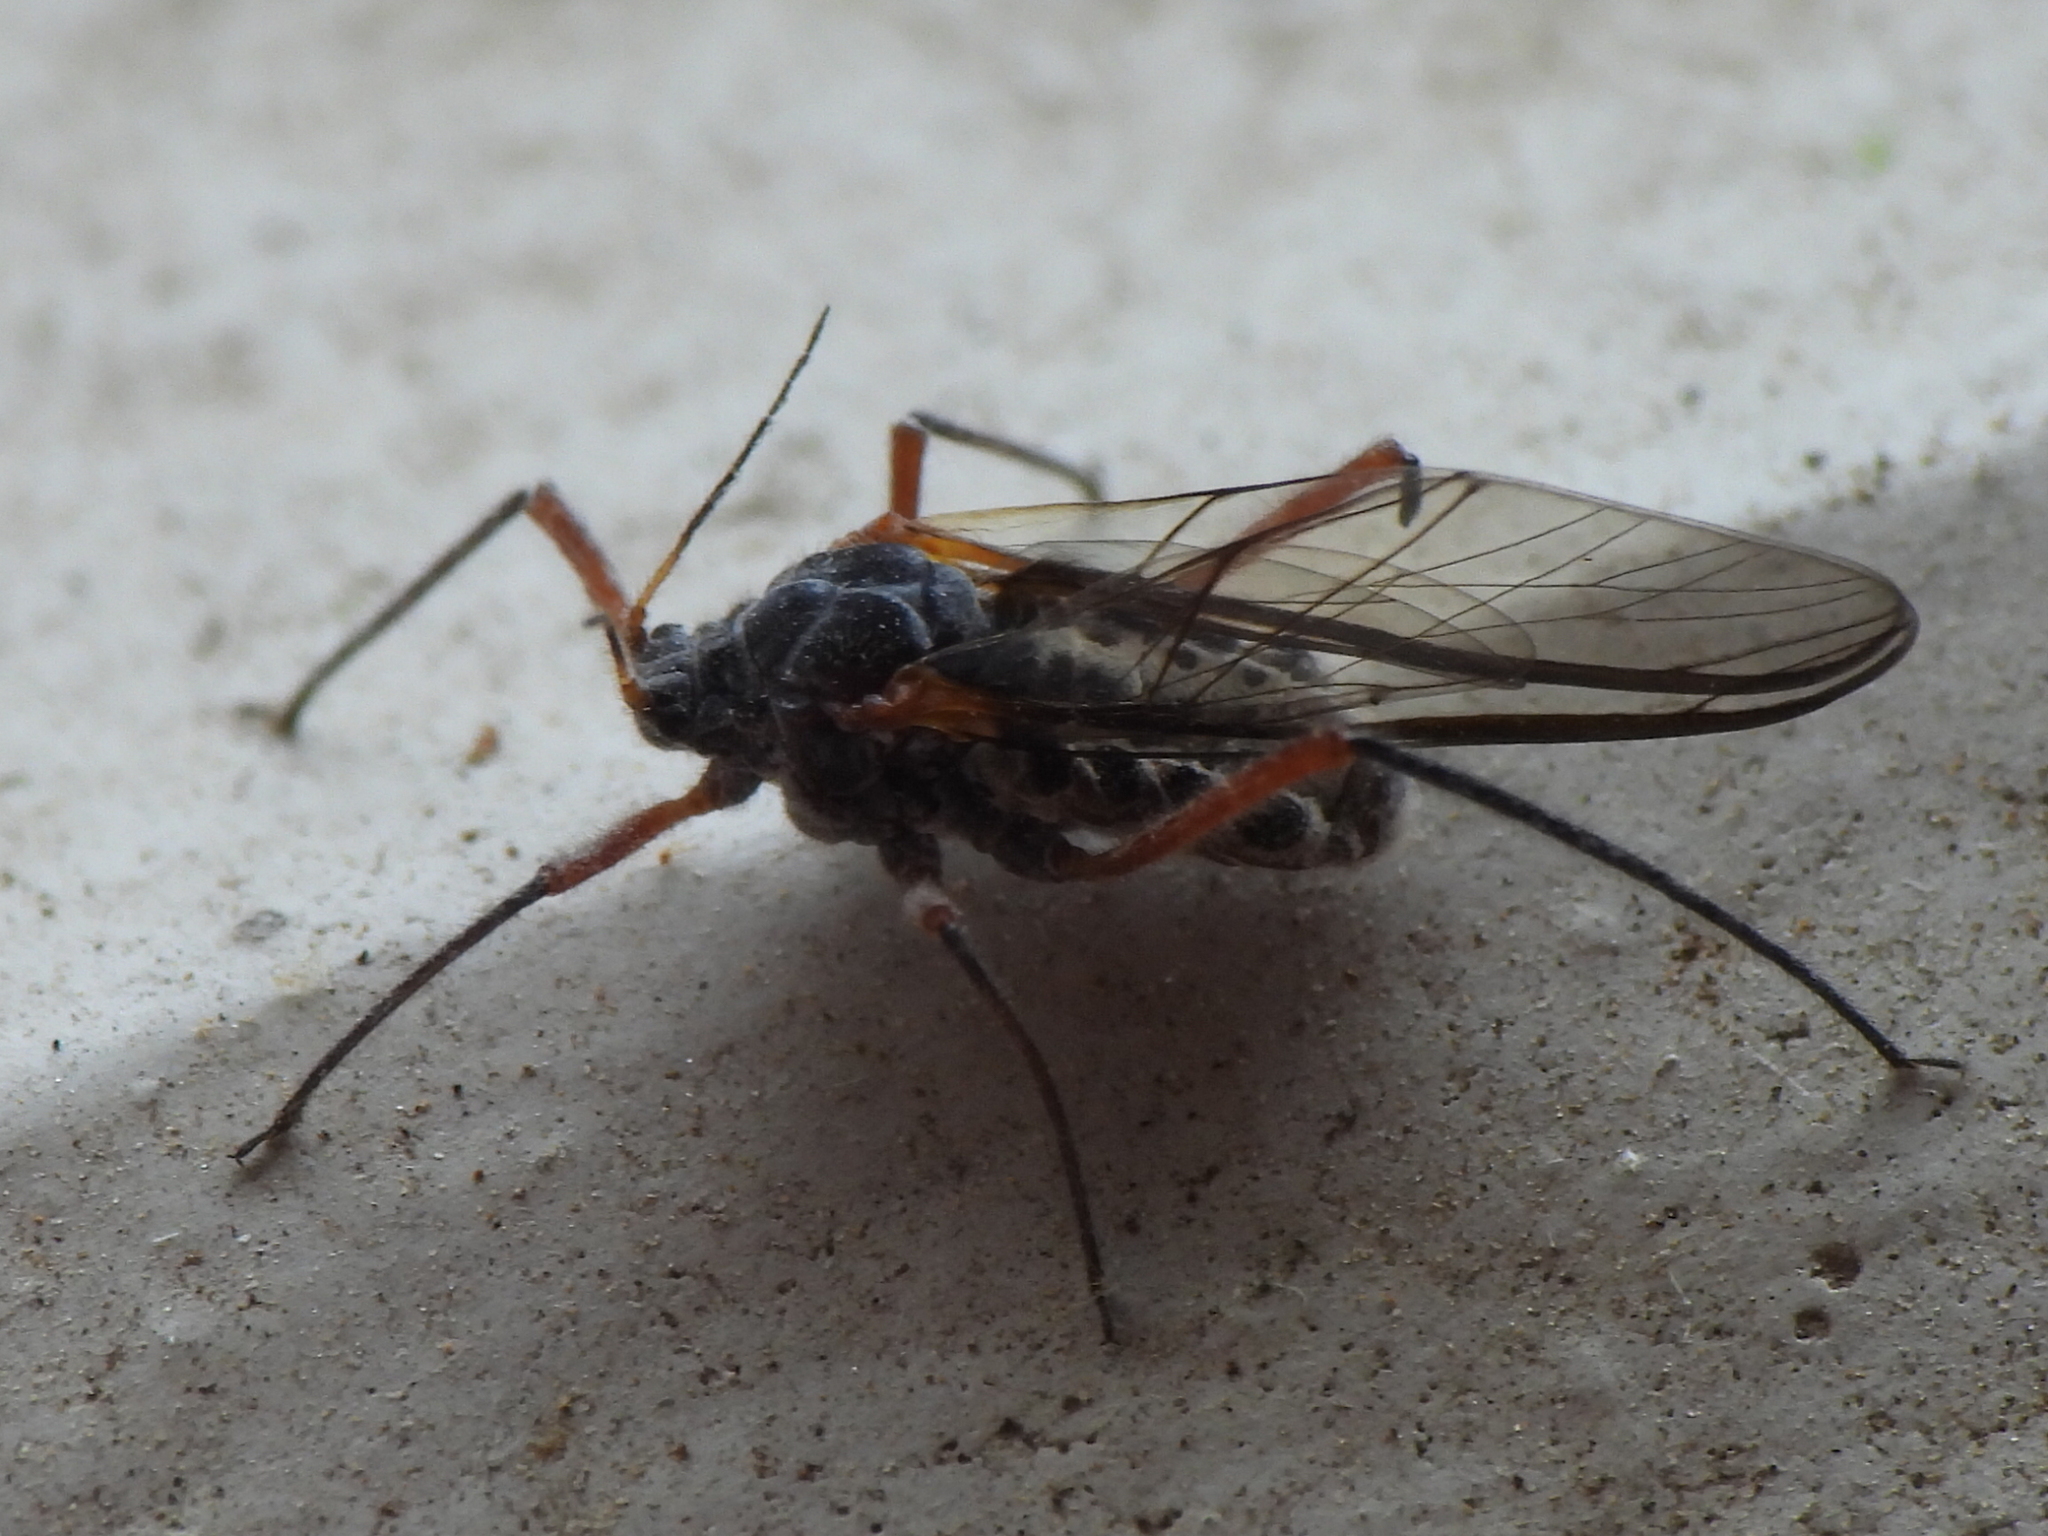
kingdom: Animalia
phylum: Arthropoda
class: Insecta
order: Hemiptera
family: Aphididae
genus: Longistigma
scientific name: Longistigma caryae
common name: Giant bark aphid
